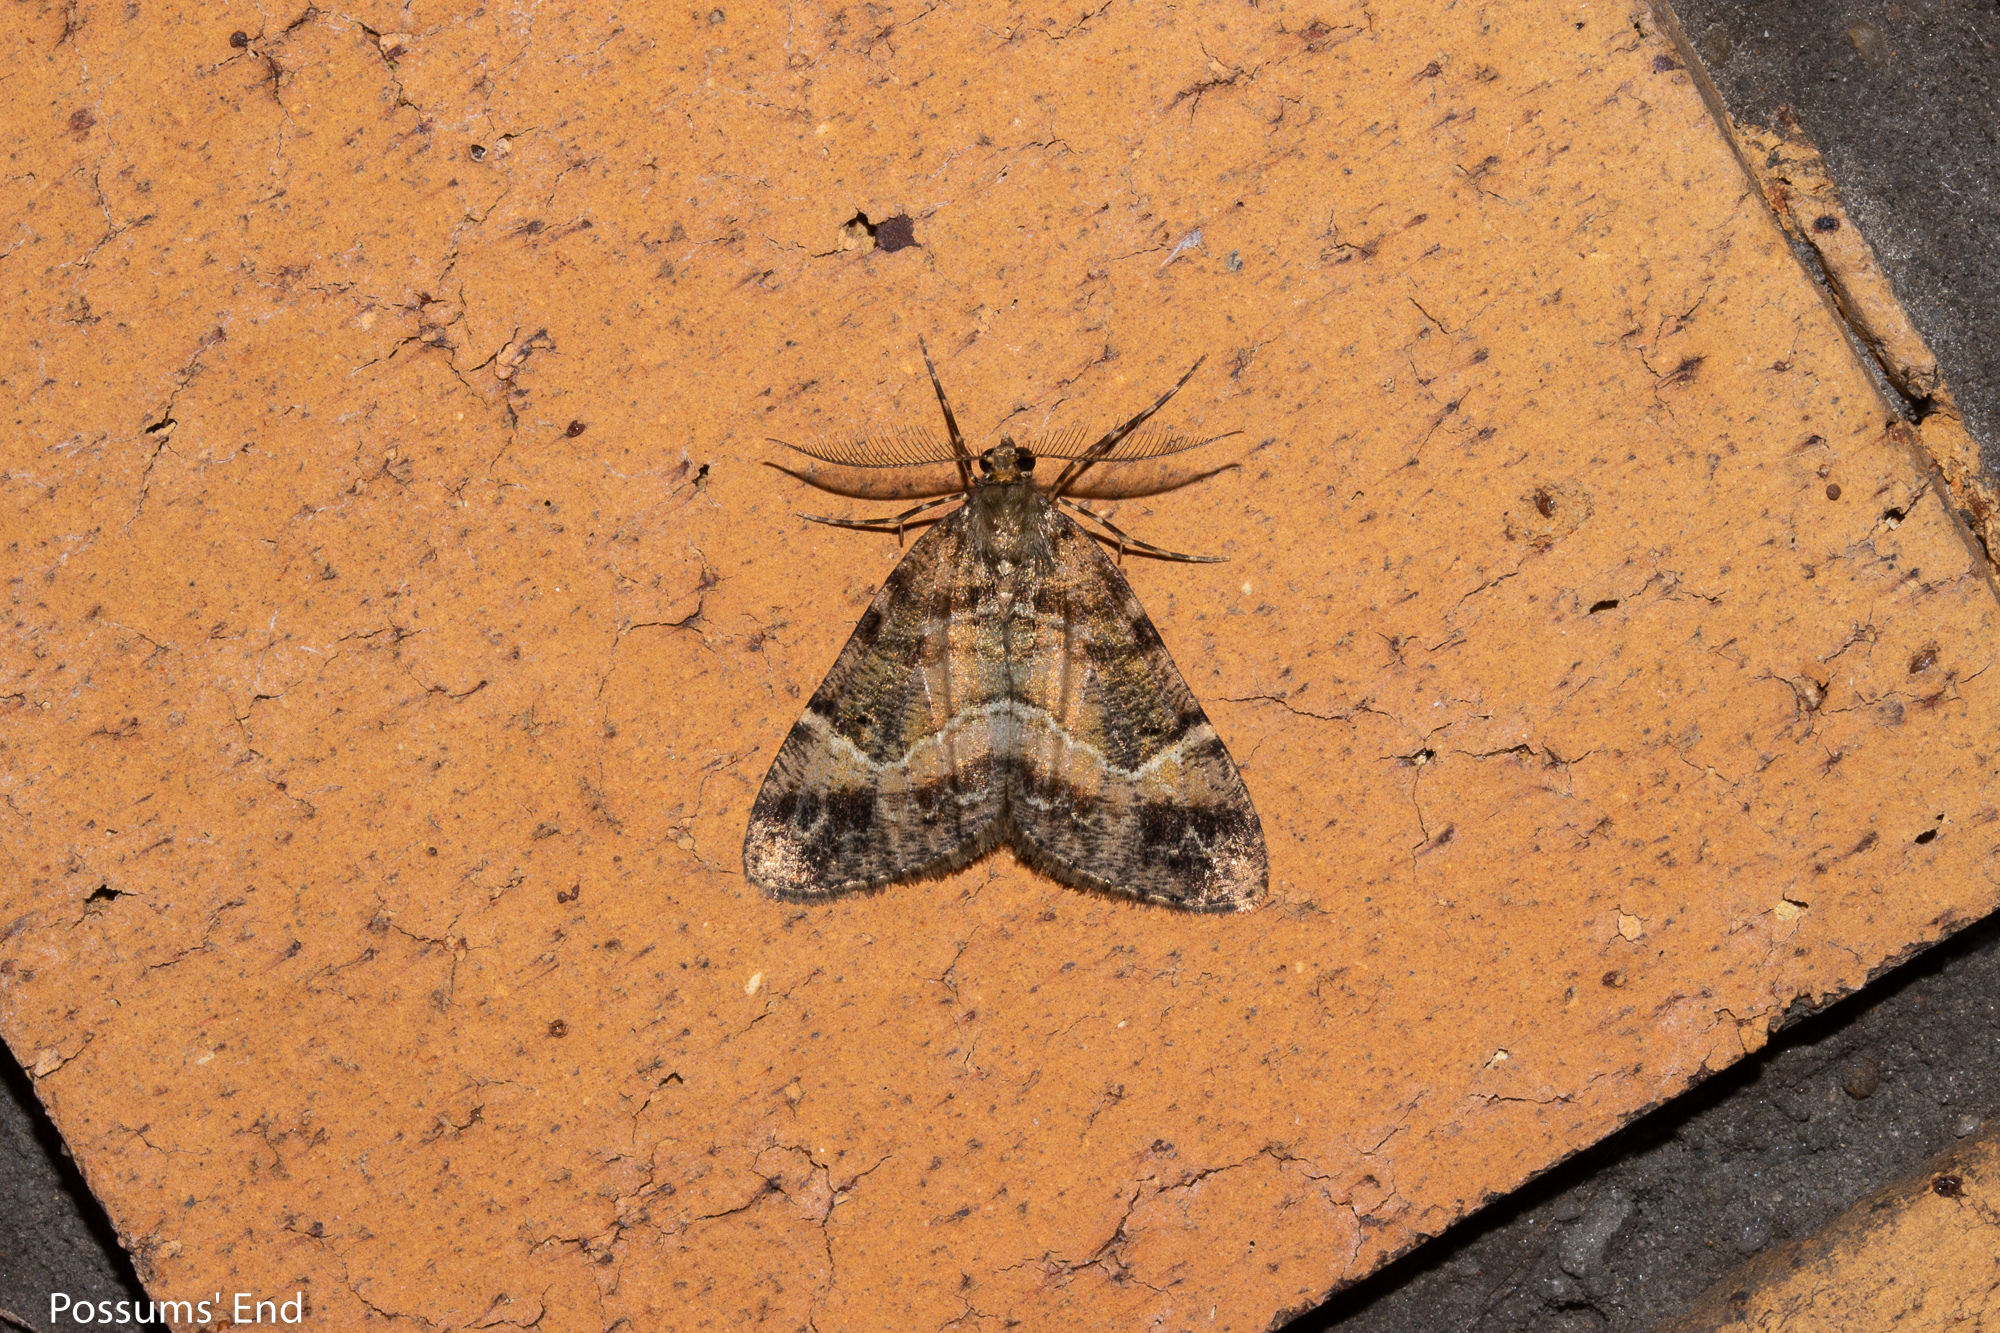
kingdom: Animalia
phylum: Arthropoda
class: Insecta
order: Lepidoptera
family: Geometridae
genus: Pseudocoremia
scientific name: Pseudocoremia productata
